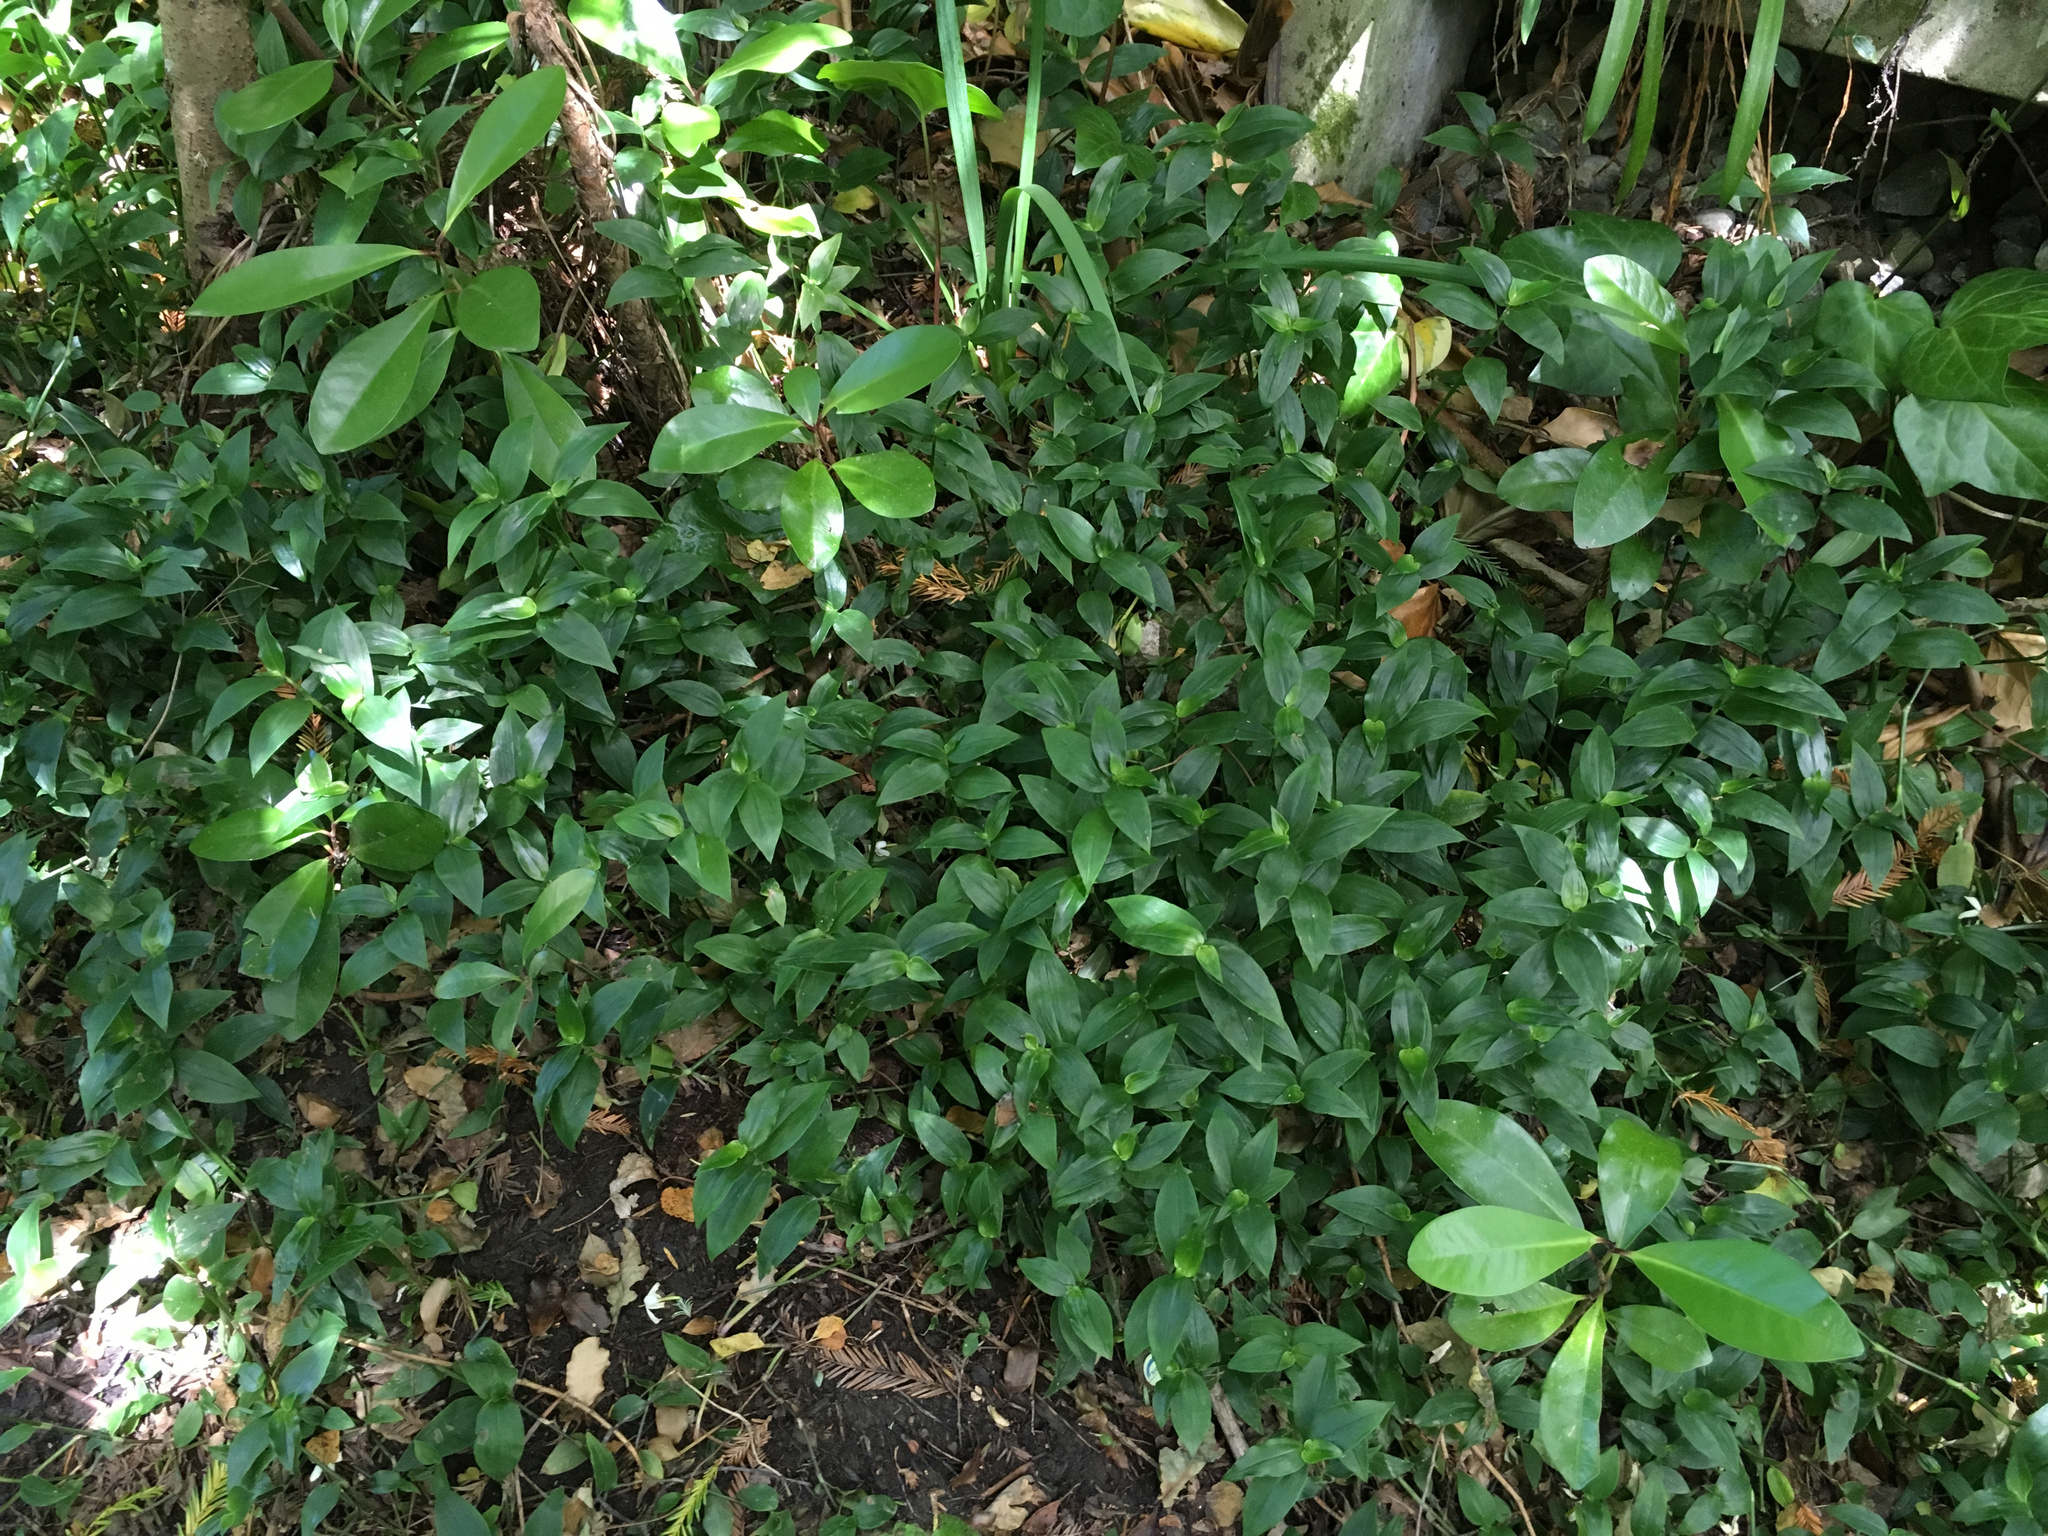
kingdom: Plantae
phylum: Tracheophyta
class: Liliopsida
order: Commelinales
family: Commelinaceae
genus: Tradescantia
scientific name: Tradescantia fluminensis
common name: Wandering-jew
